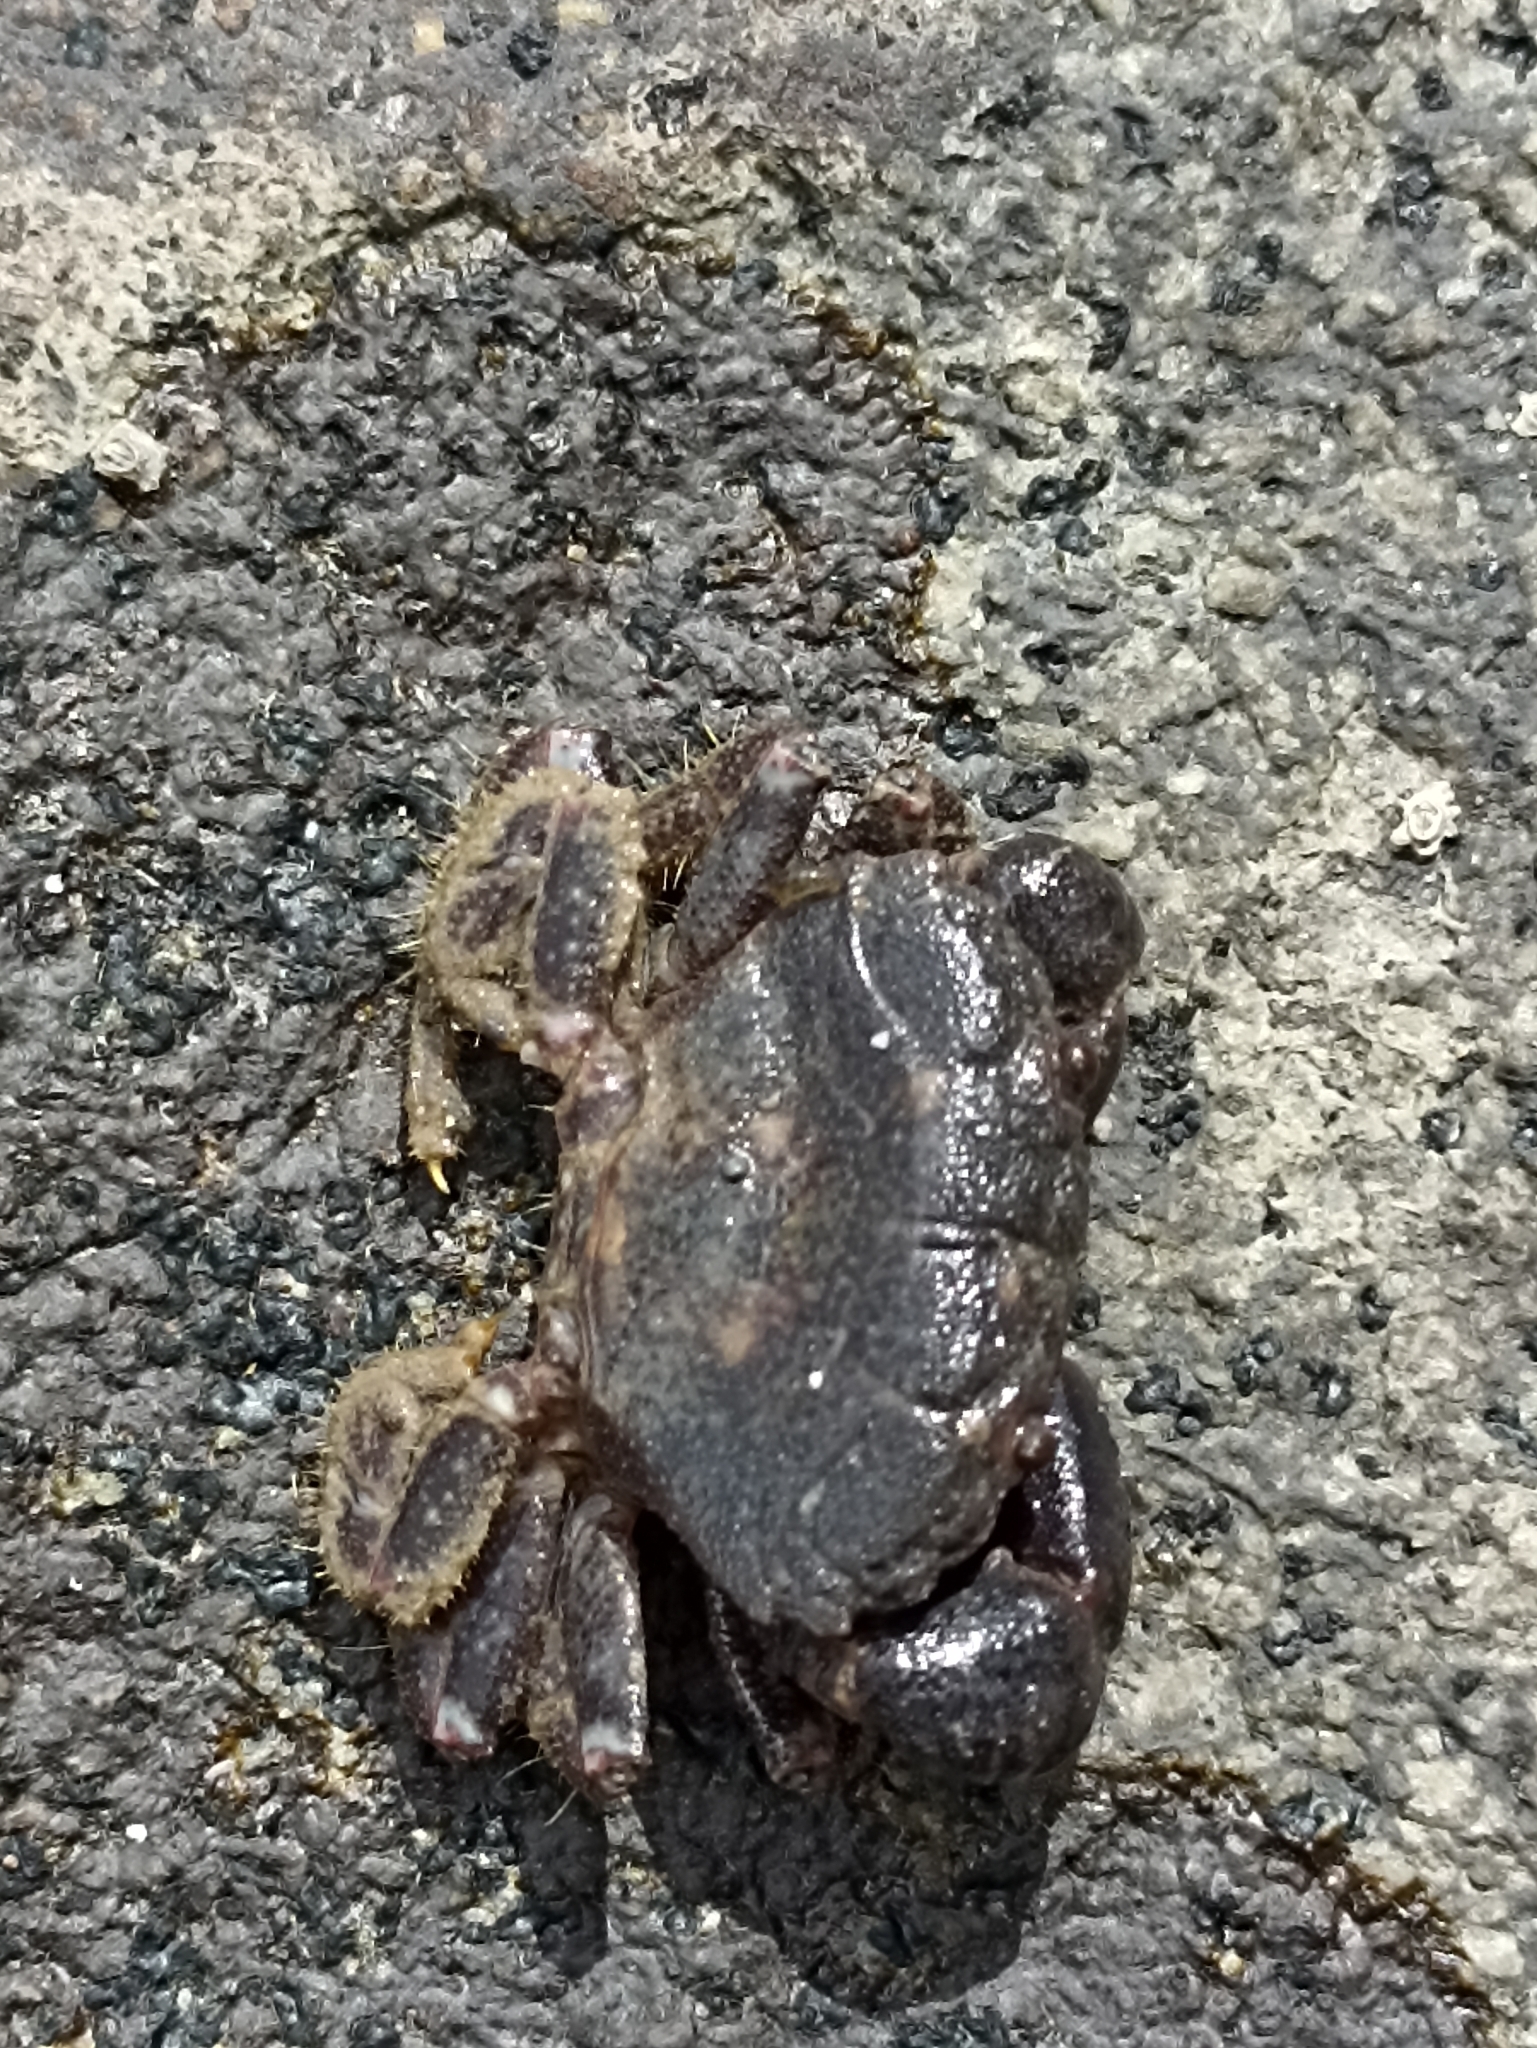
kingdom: Animalia
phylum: Arthropoda
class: Malacostraca
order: Decapoda
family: Oziidae
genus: Ozius
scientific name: Ozius deplanatus
